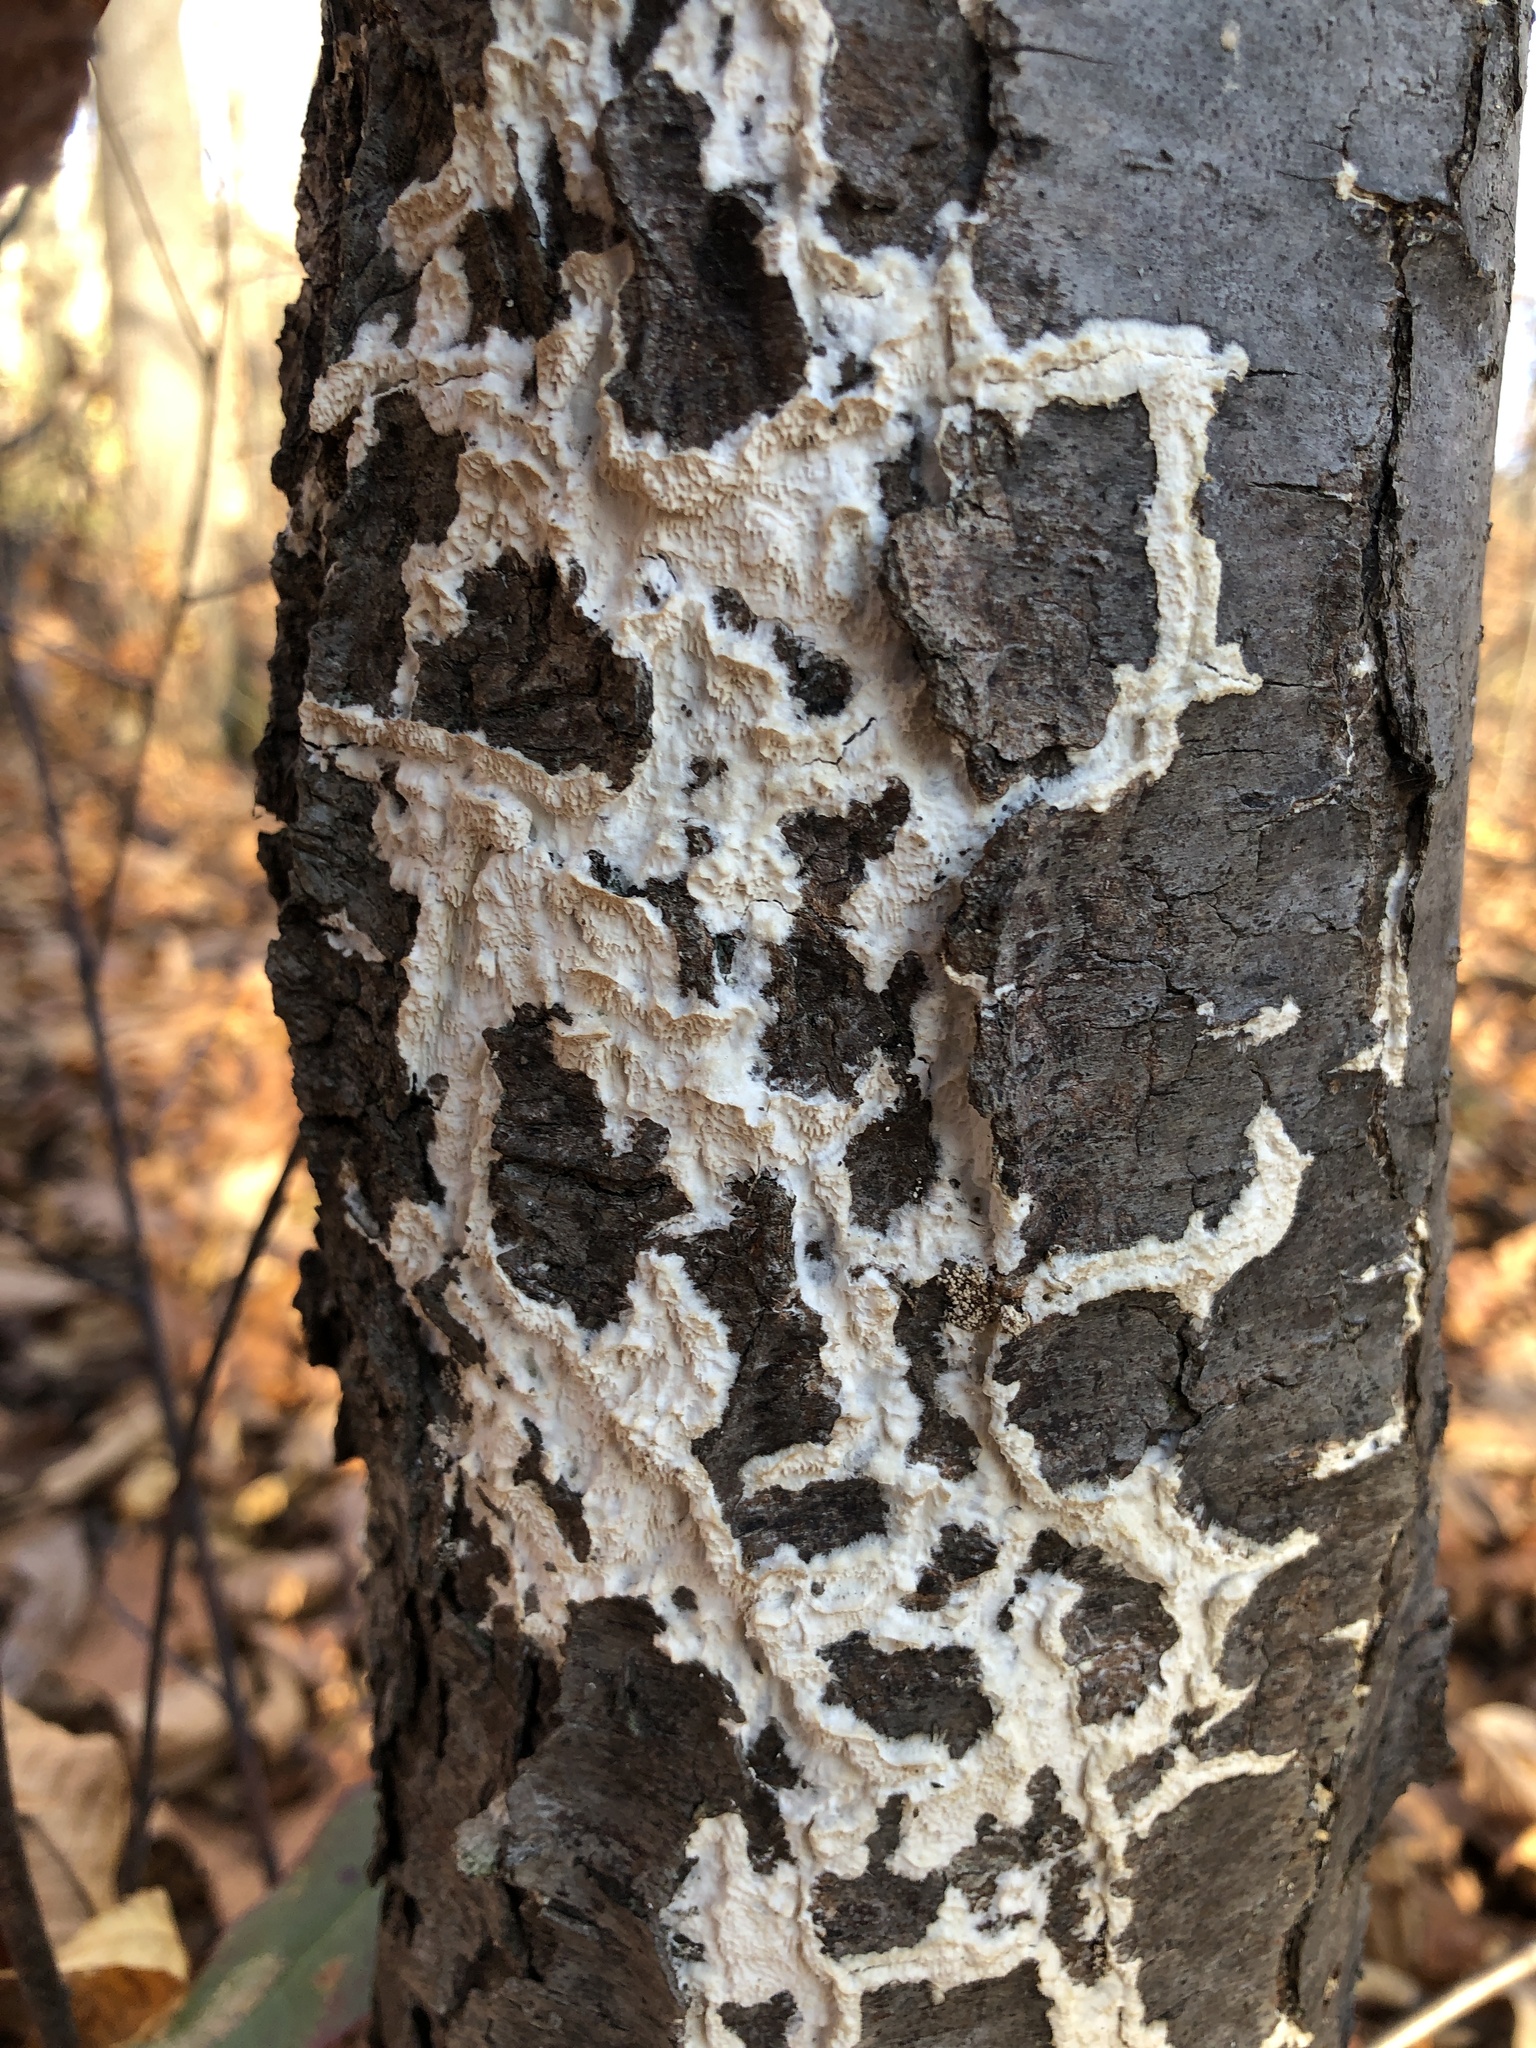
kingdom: Fungi
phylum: Basidiomycota
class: Agaricomycetes
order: Polyporales
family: Irpicaceae
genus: Irpex
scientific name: Irpex lacteus
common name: Milk-white toothed polypore
